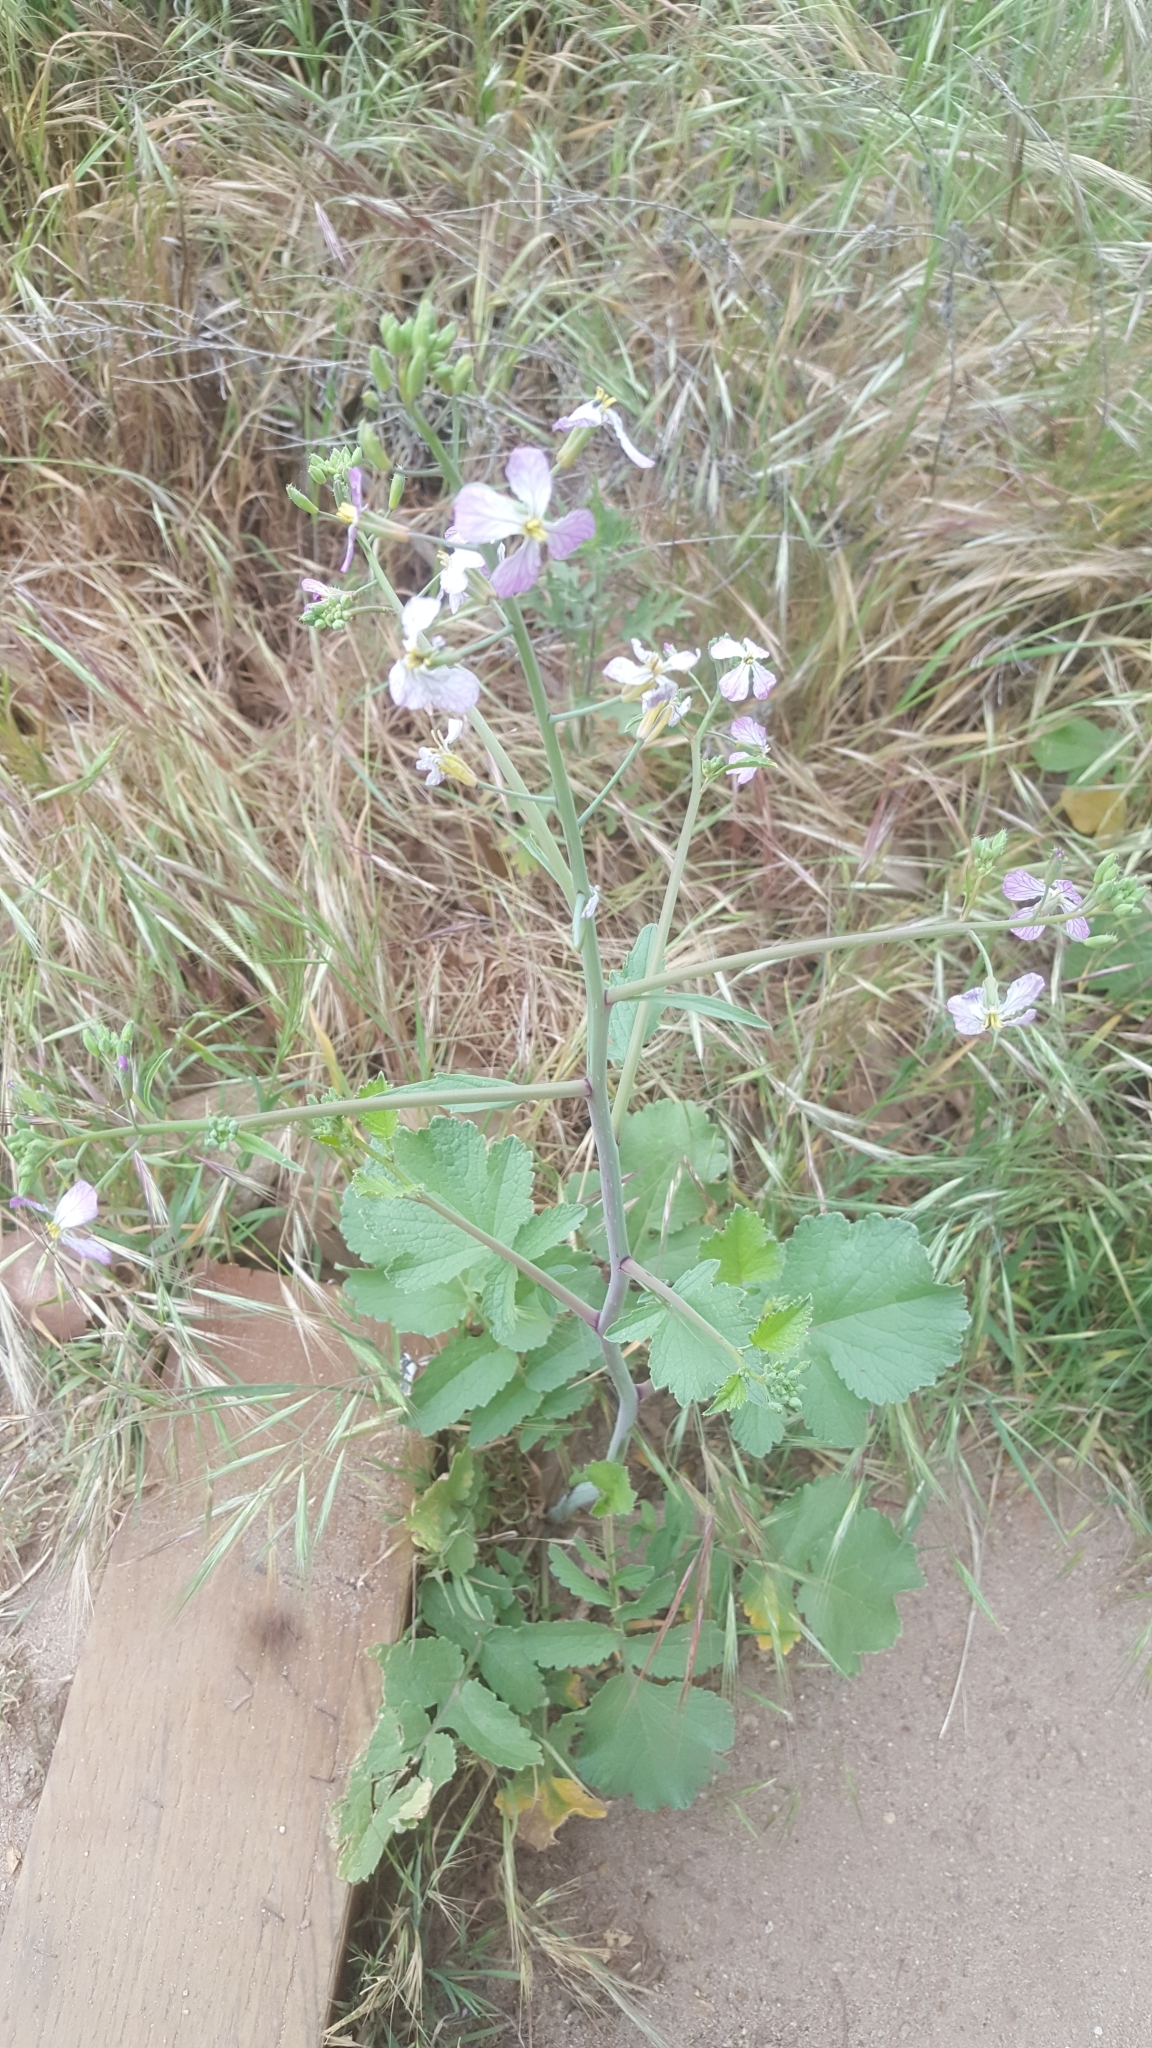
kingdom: Plantae
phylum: Tracheophyta
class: Magnoliopsida
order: Brassicales
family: Brassicaceae
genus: Raphanus
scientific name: Raphanus sativus
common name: Cultivated radish
